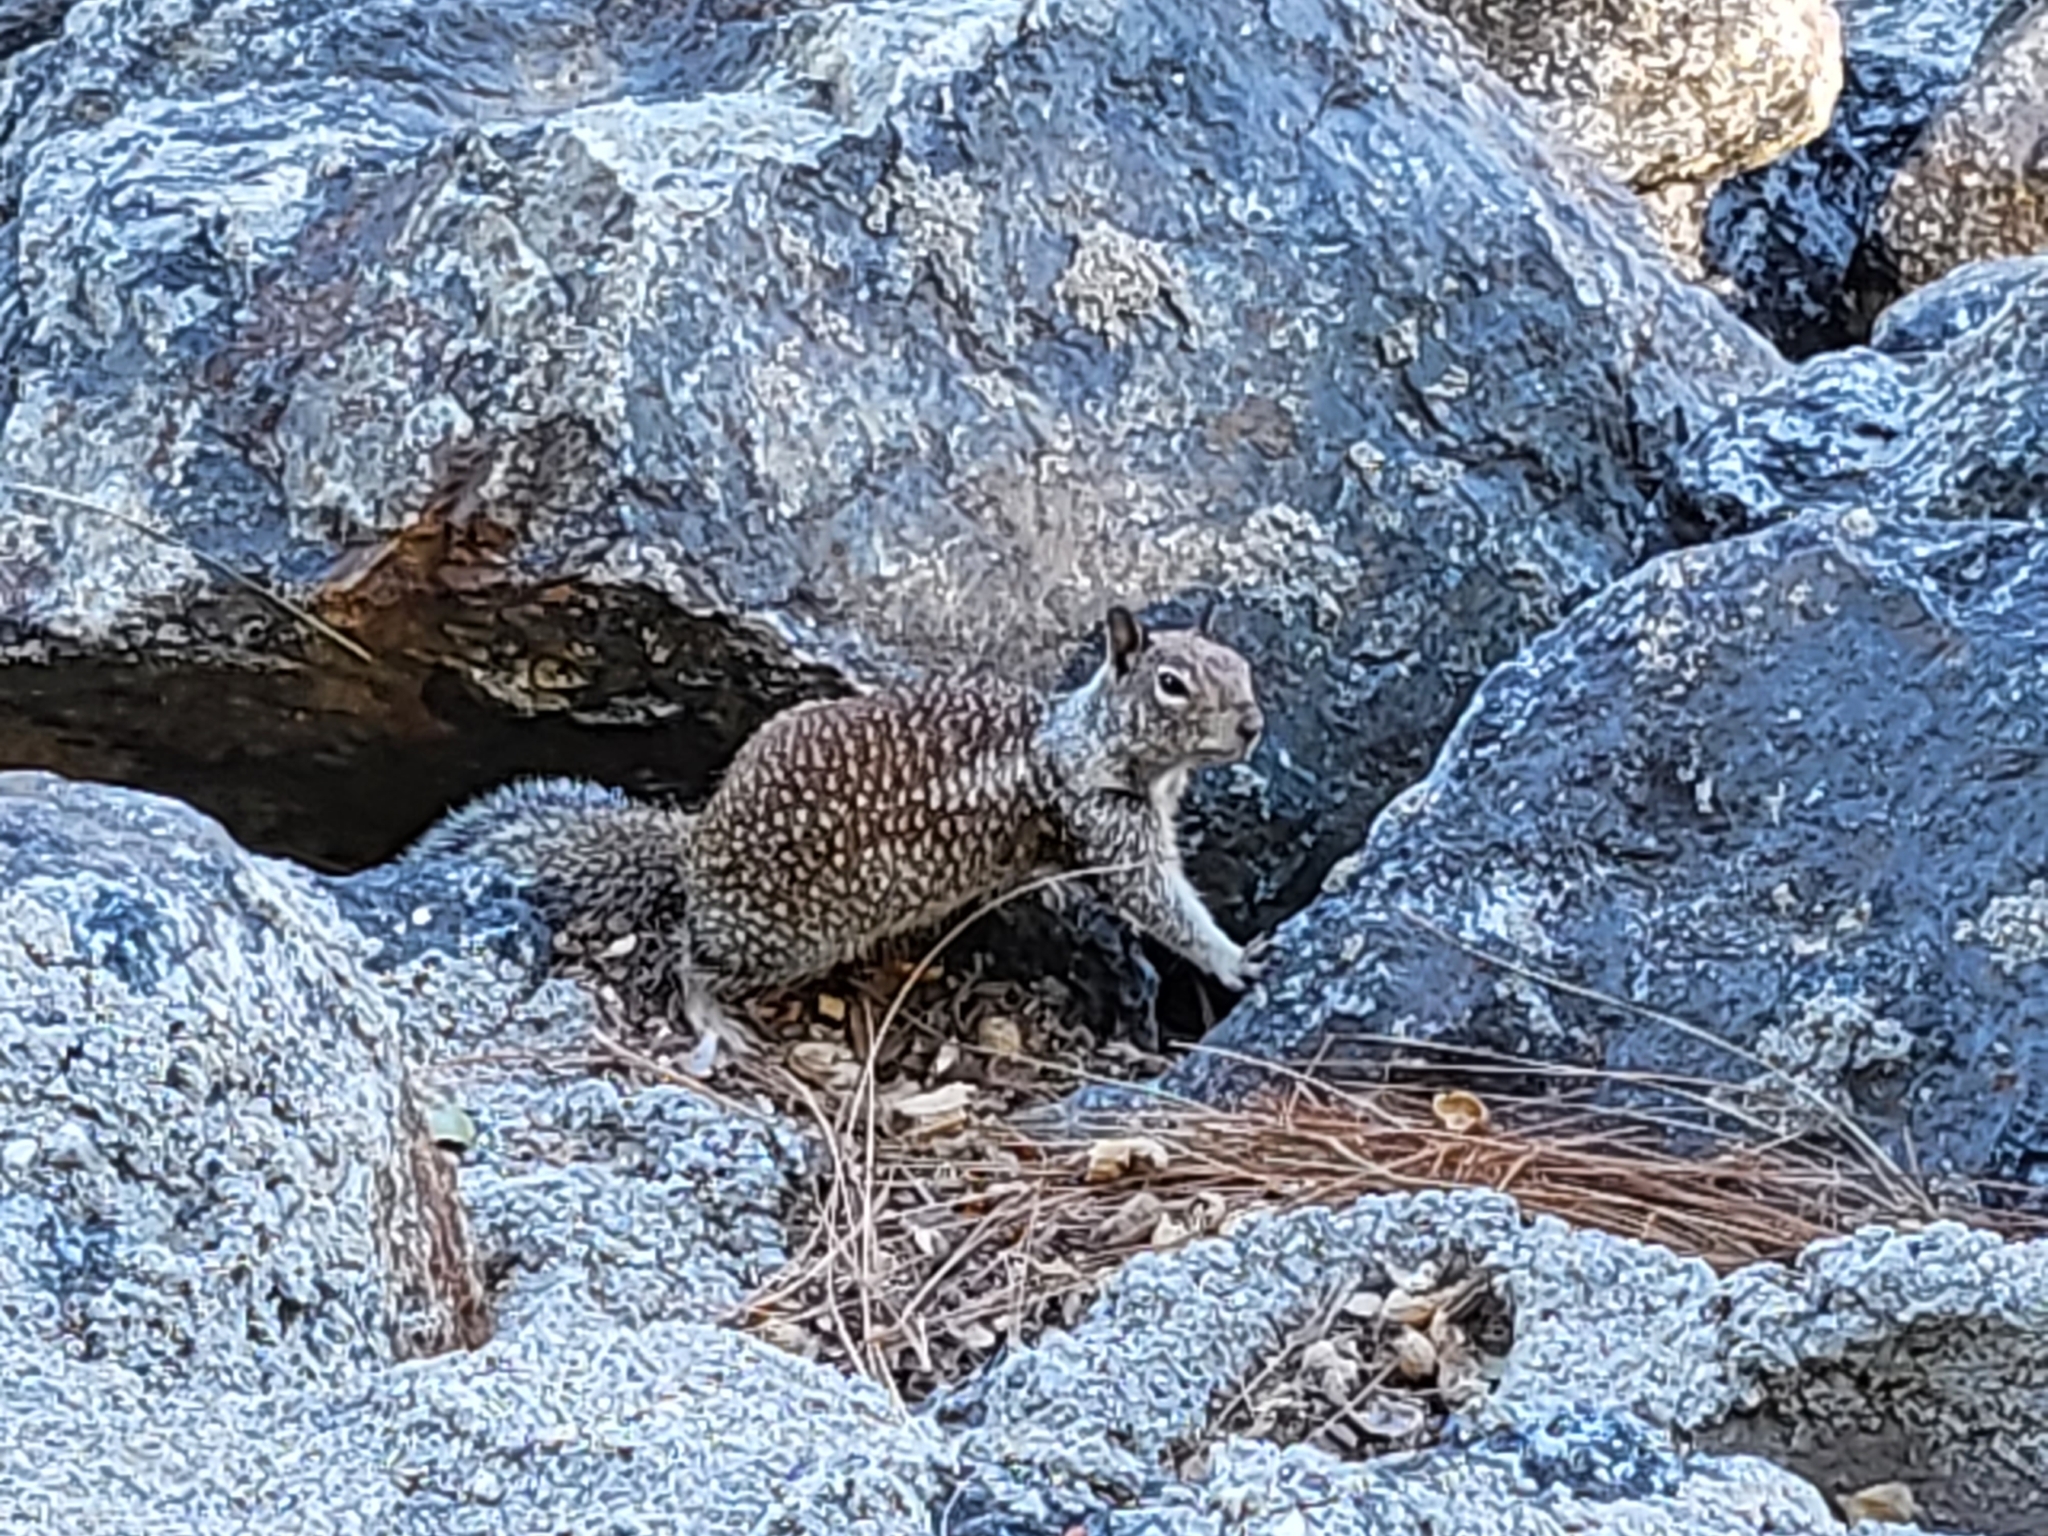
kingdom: Animalia
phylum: Chordata
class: Mammalia
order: Rodentia
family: Sciuridae
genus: Otospermophilus
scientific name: Otospermophilus beecheyi
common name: California ground squirrel
